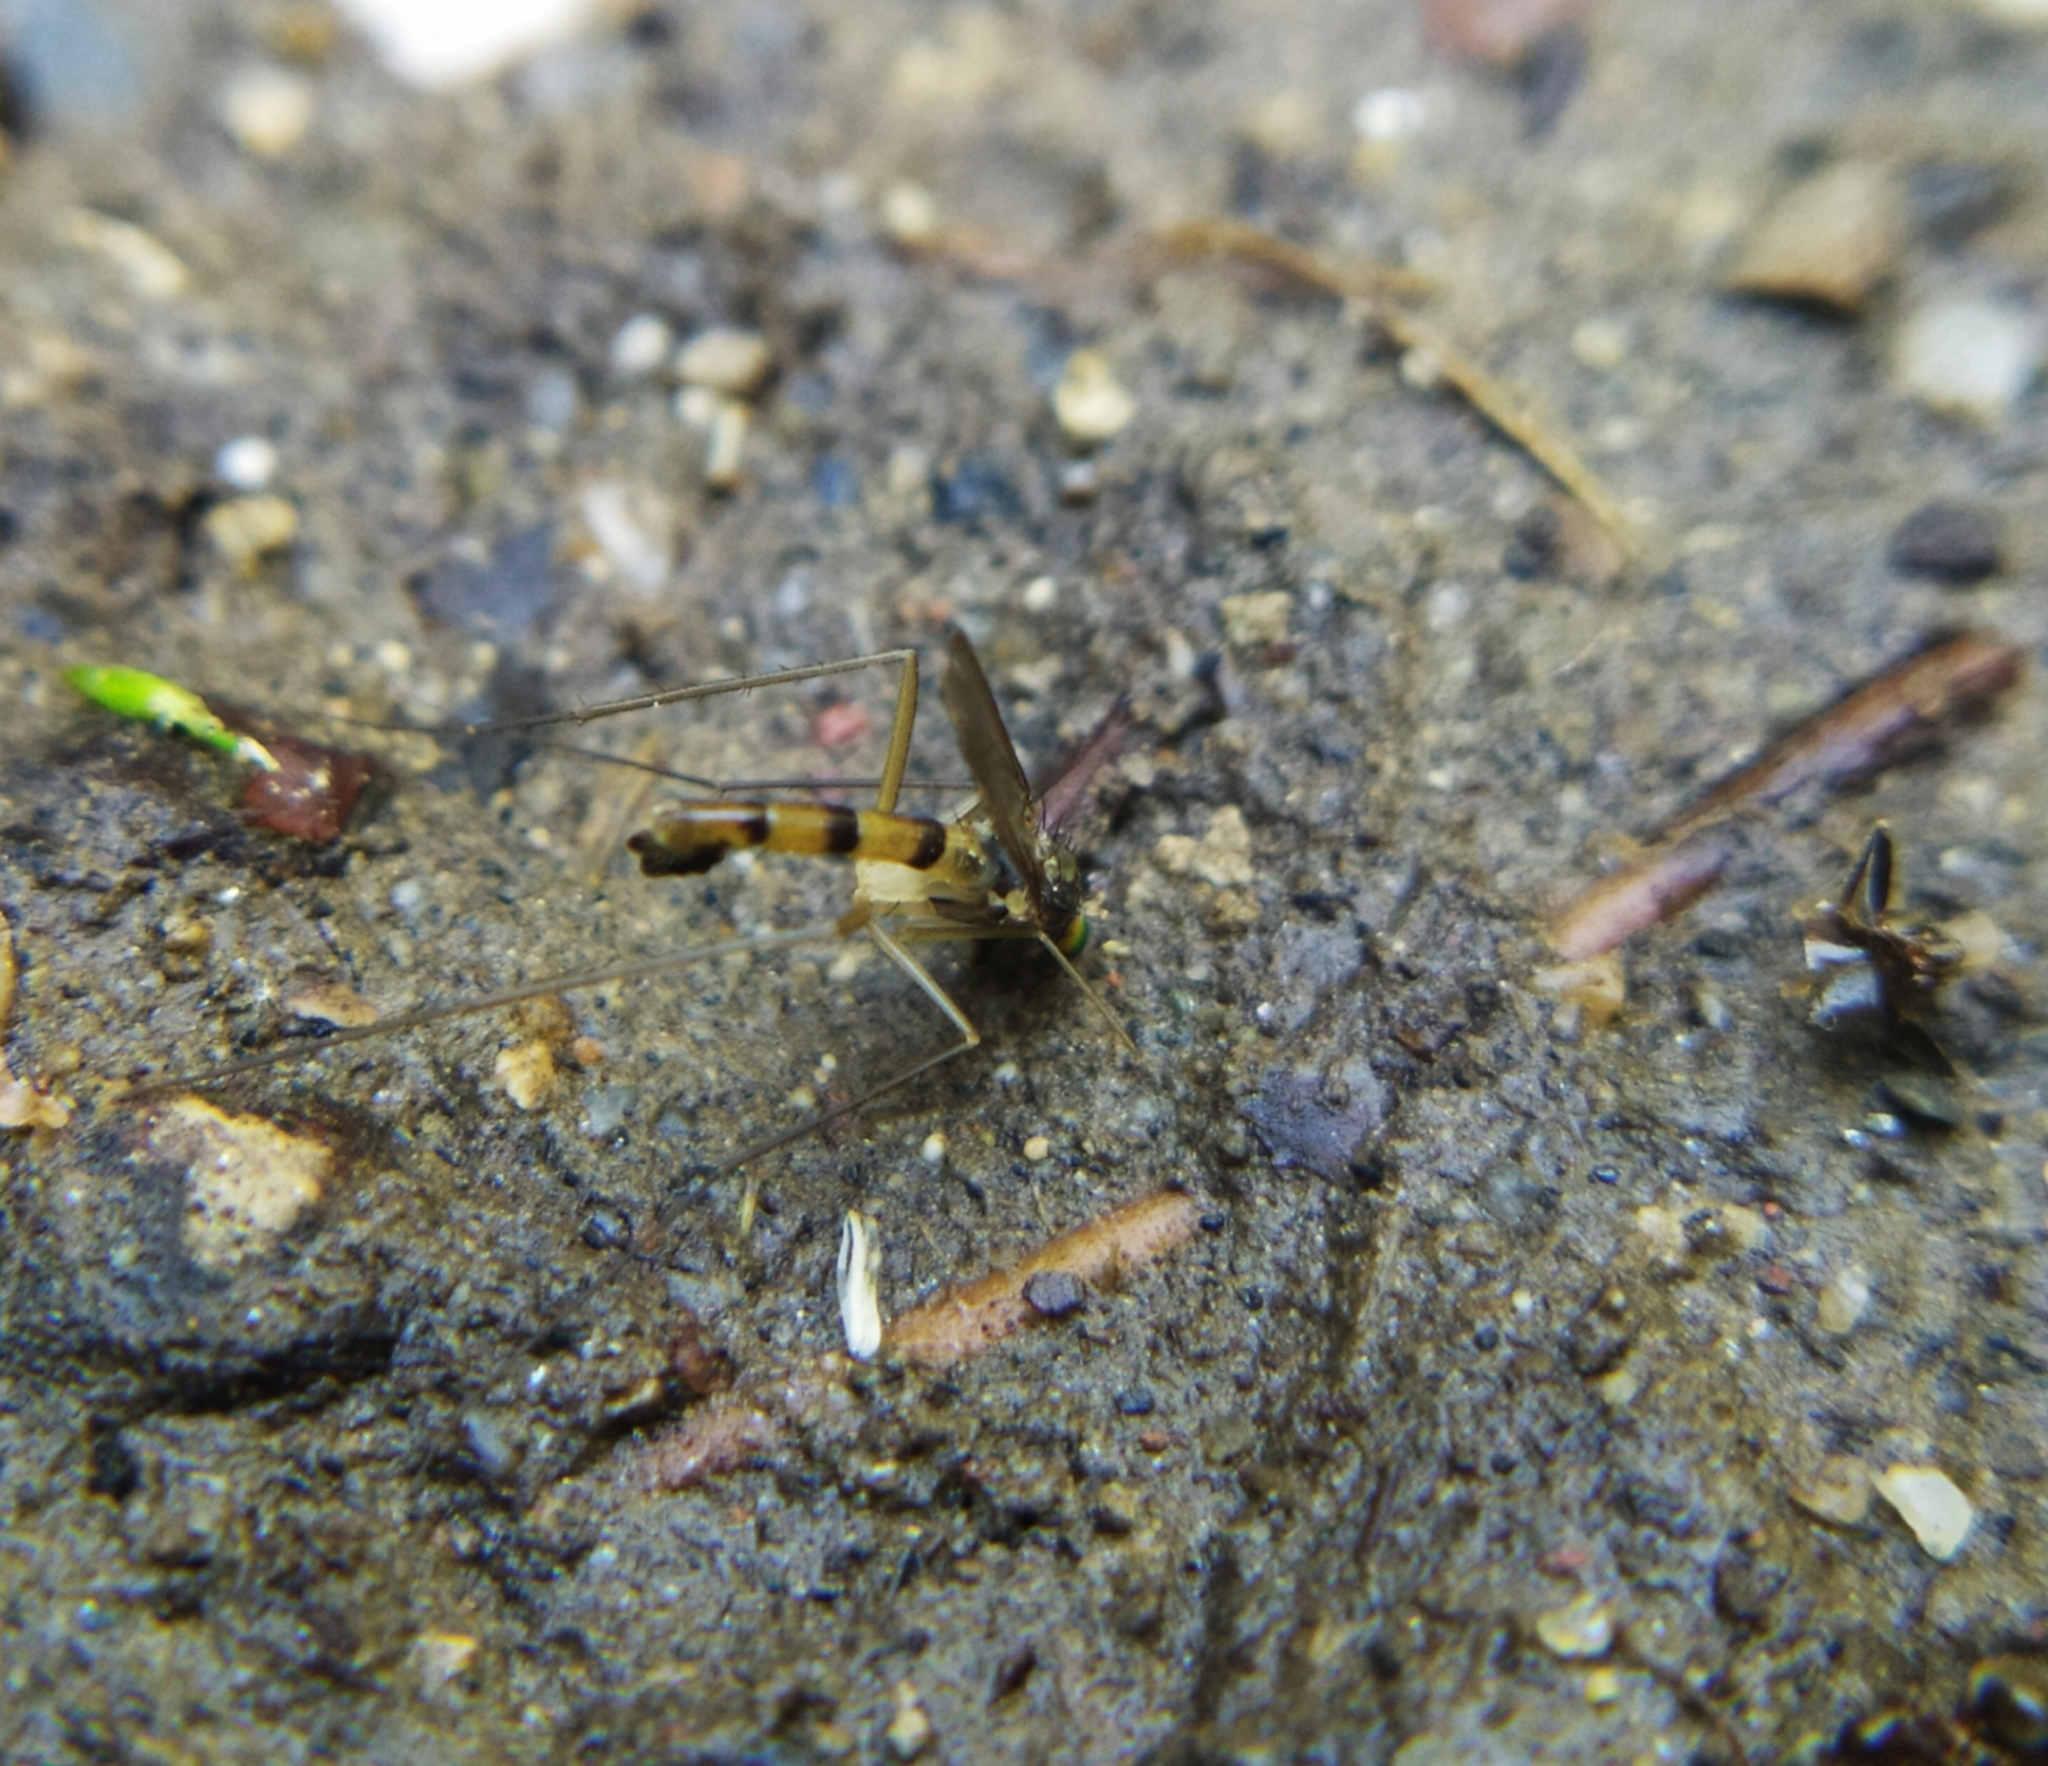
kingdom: Animalia
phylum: Arthropoda
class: Insecta
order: Diptera
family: Dolichopodidae
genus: Neurigona
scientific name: Neurigona quadrifasciata
